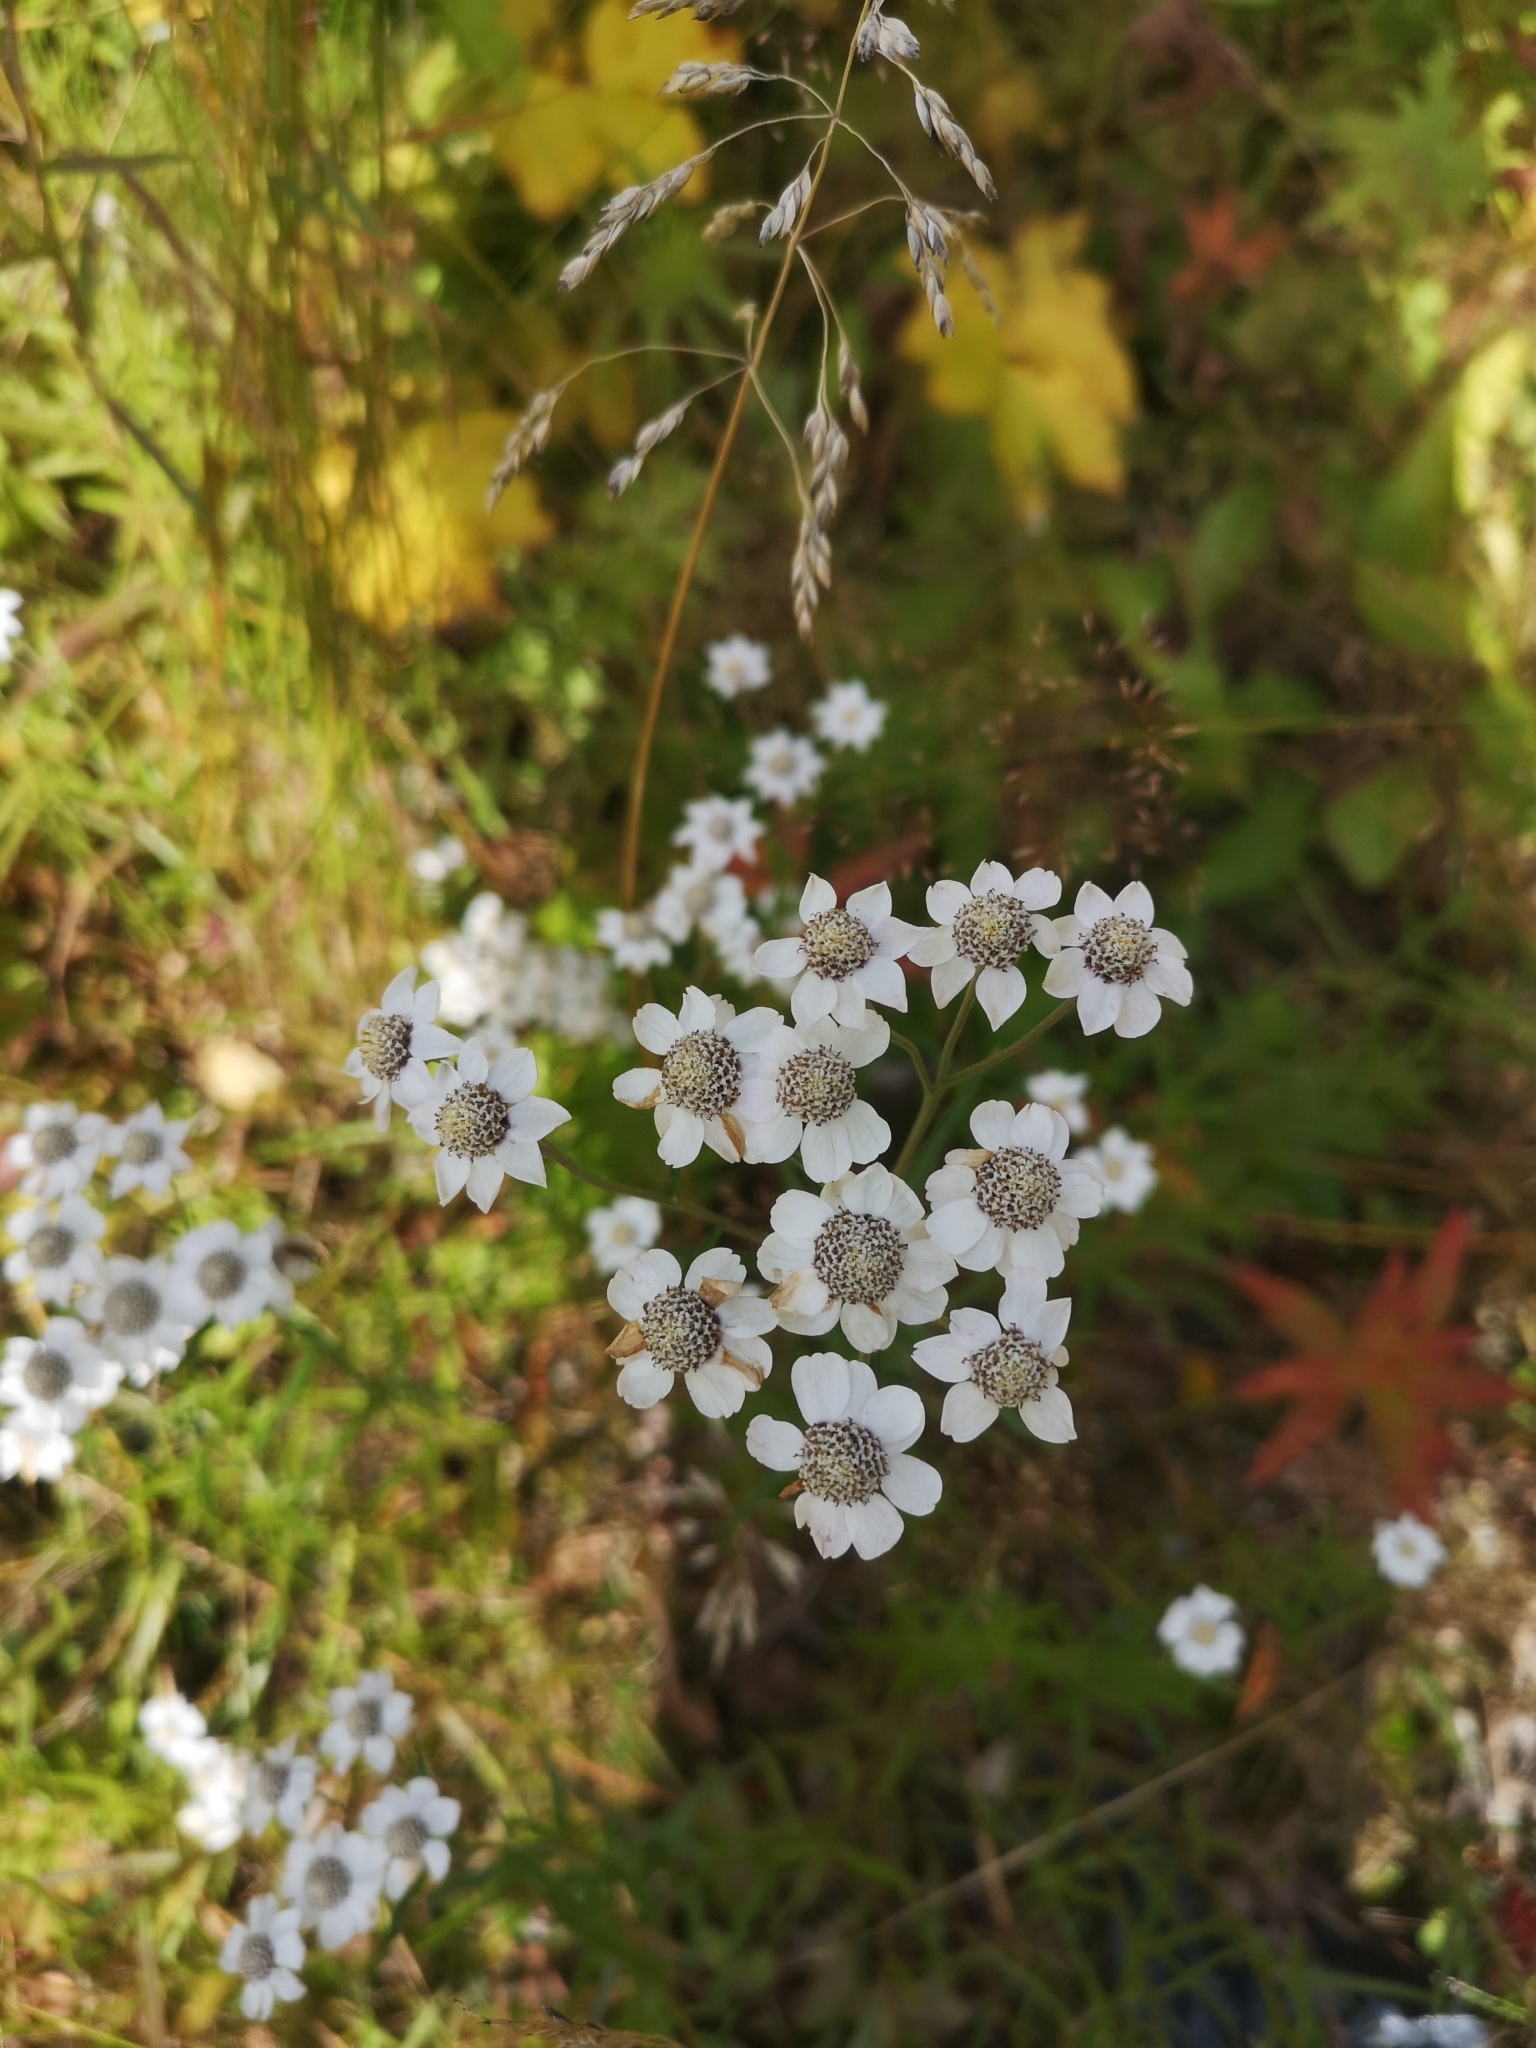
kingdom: Plantae
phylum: Tracheophyta
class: Magnoliopsida
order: Asterales
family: Asteraceae
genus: Achillea
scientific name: Achillea ptarmica
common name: Sneezeweed
